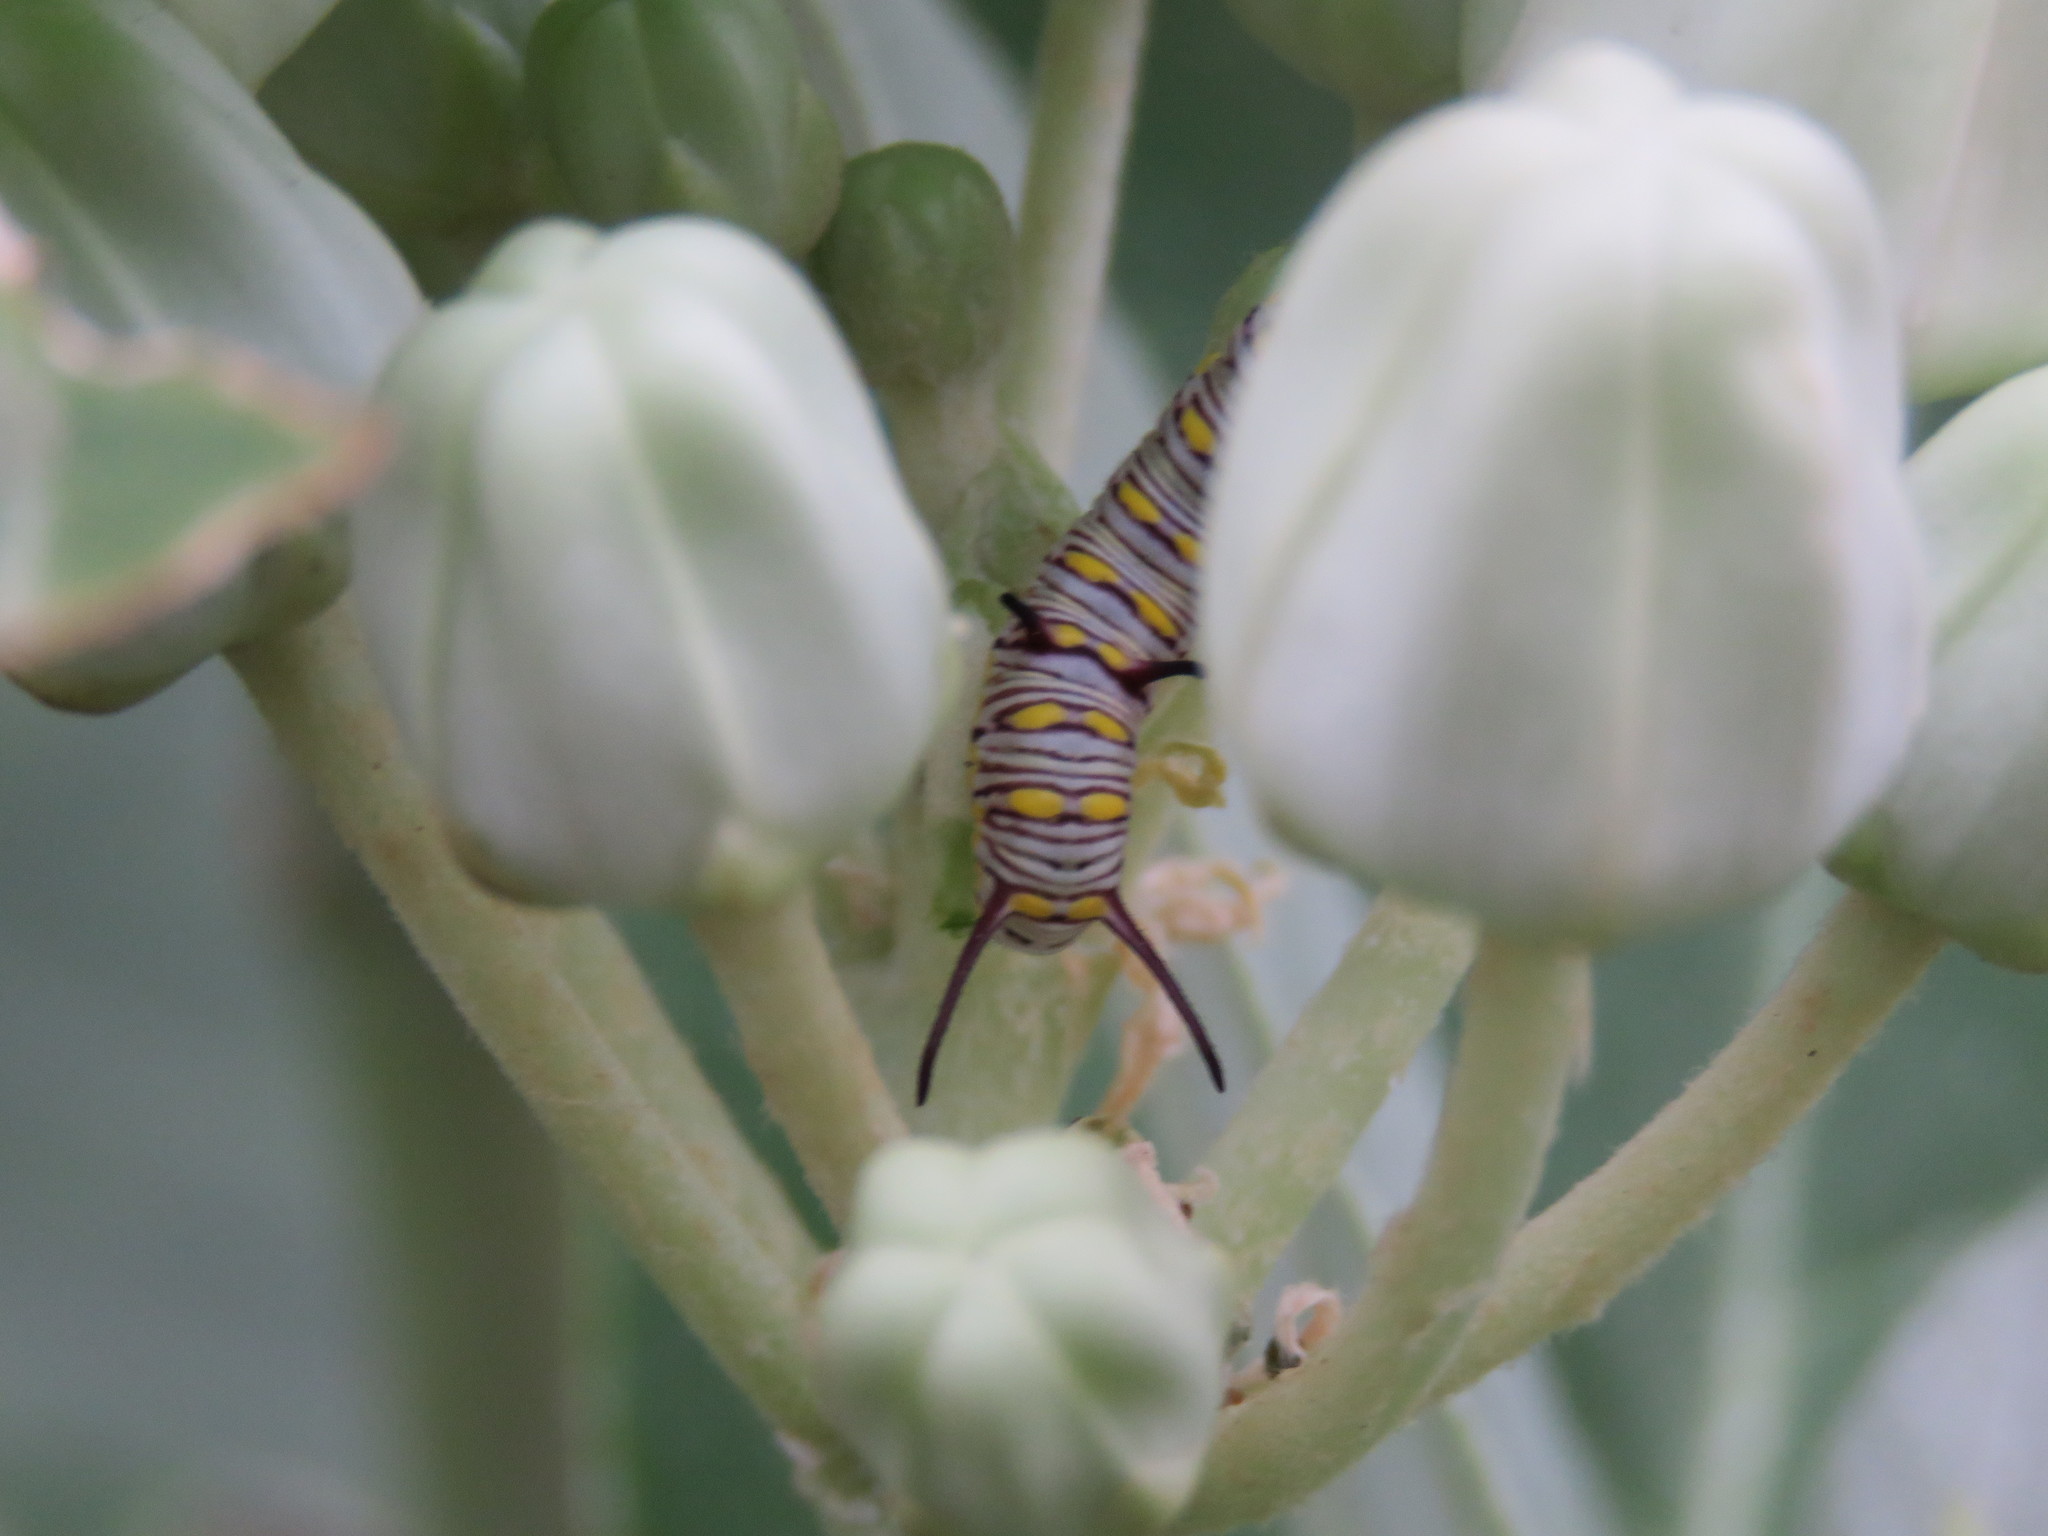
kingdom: Animalia
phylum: Arthropoda
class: Insecta
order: Lepidoptera
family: Nymphalidae
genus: Danaus
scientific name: Danaus chrysippus
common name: Plain tiger
